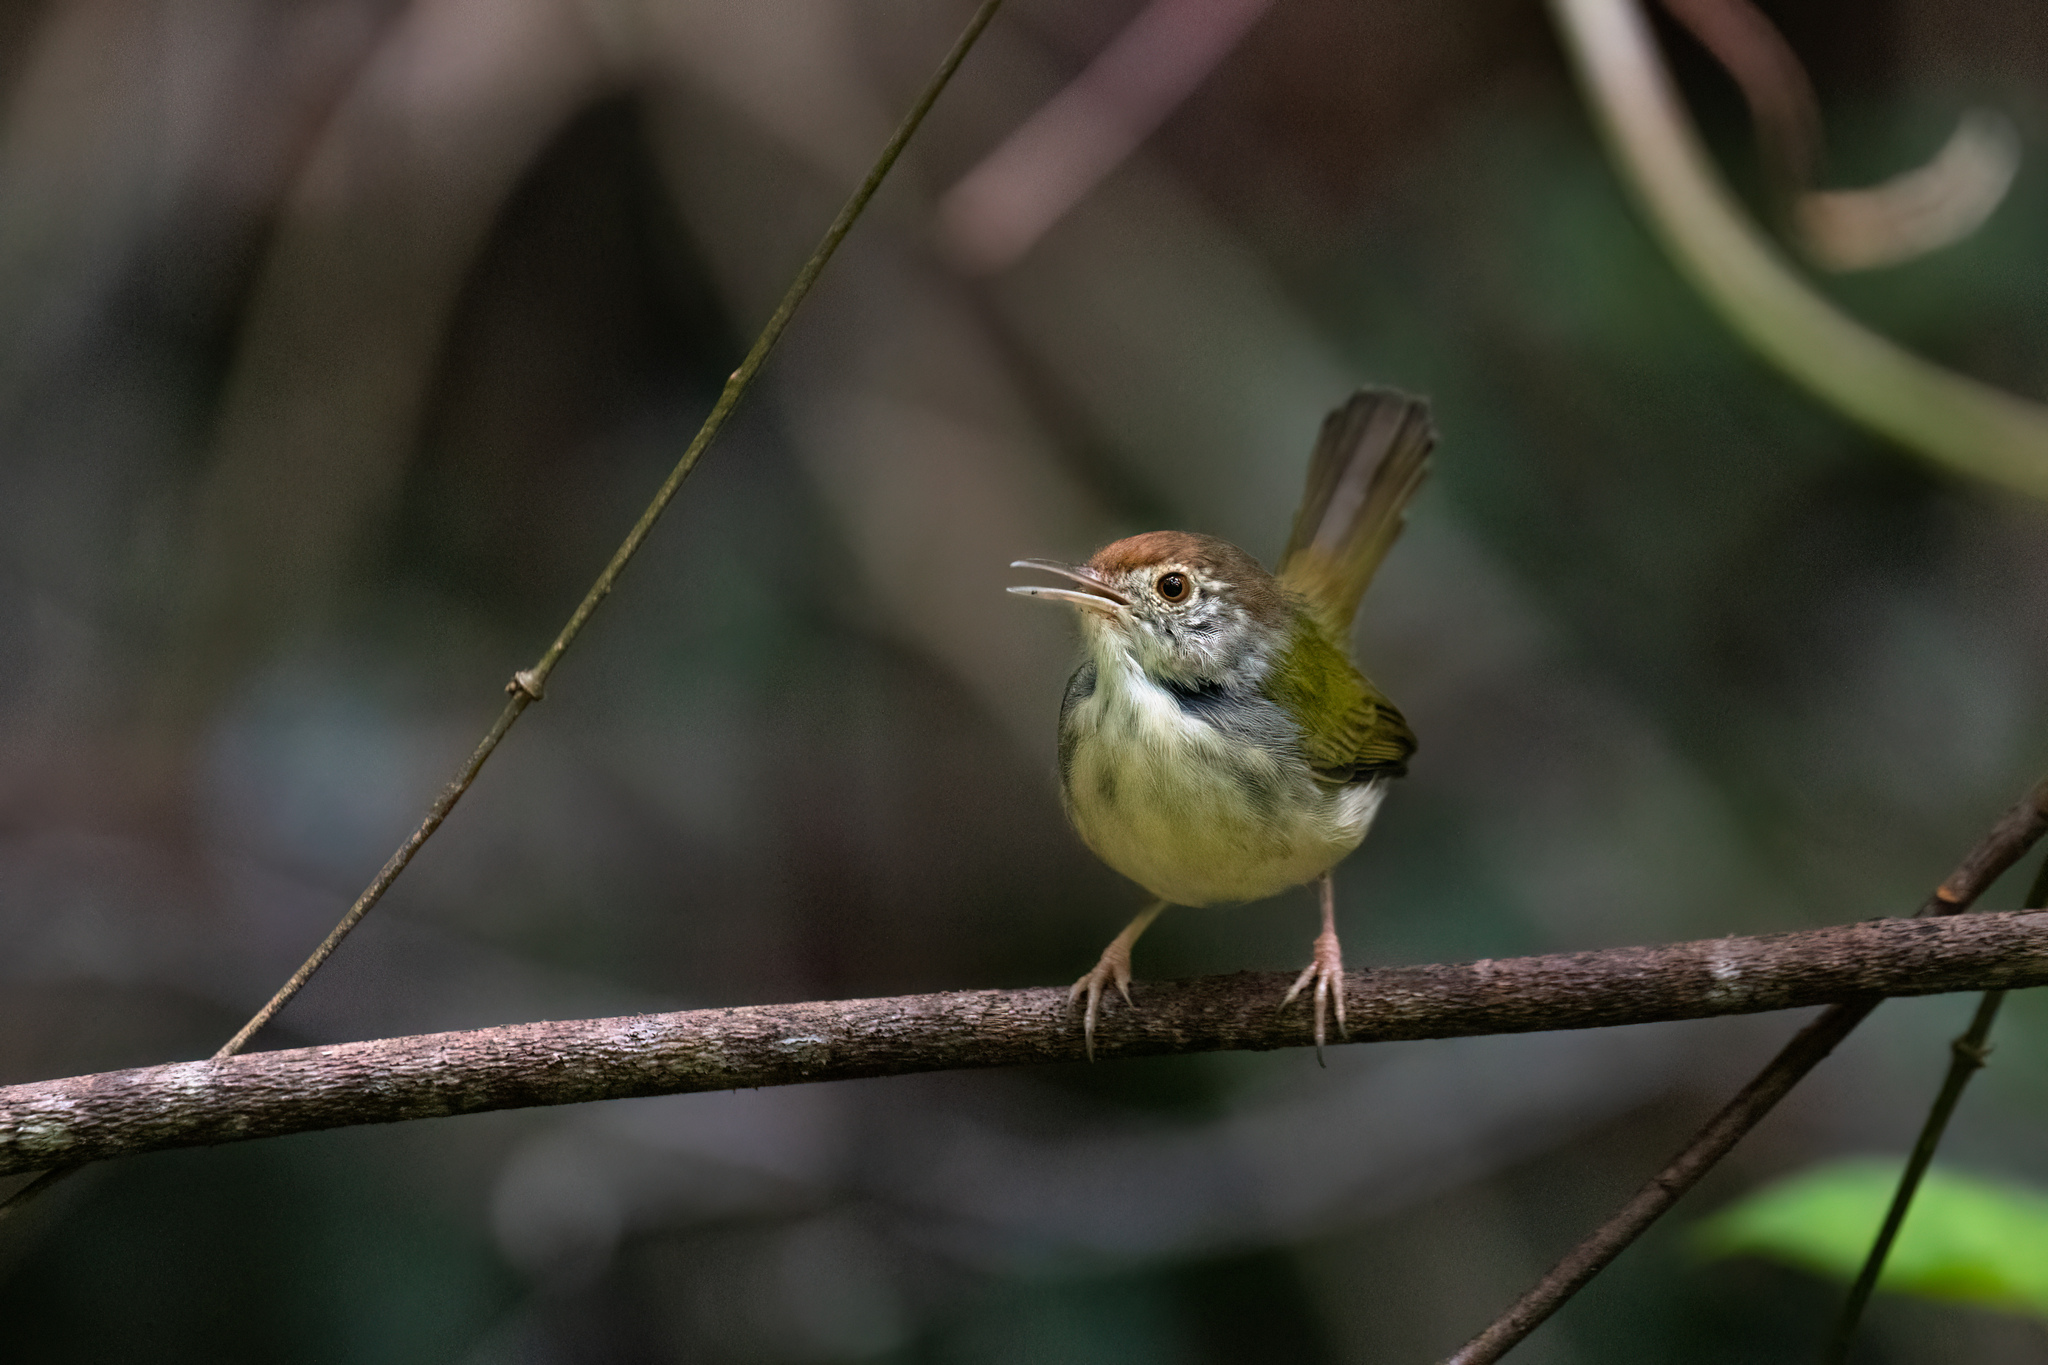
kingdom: Animalia
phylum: Chordata
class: Aves
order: Passeriformes
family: Cisticolidae
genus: Orthotomus
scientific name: Orthotomus sutorius
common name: Common tailorbird
